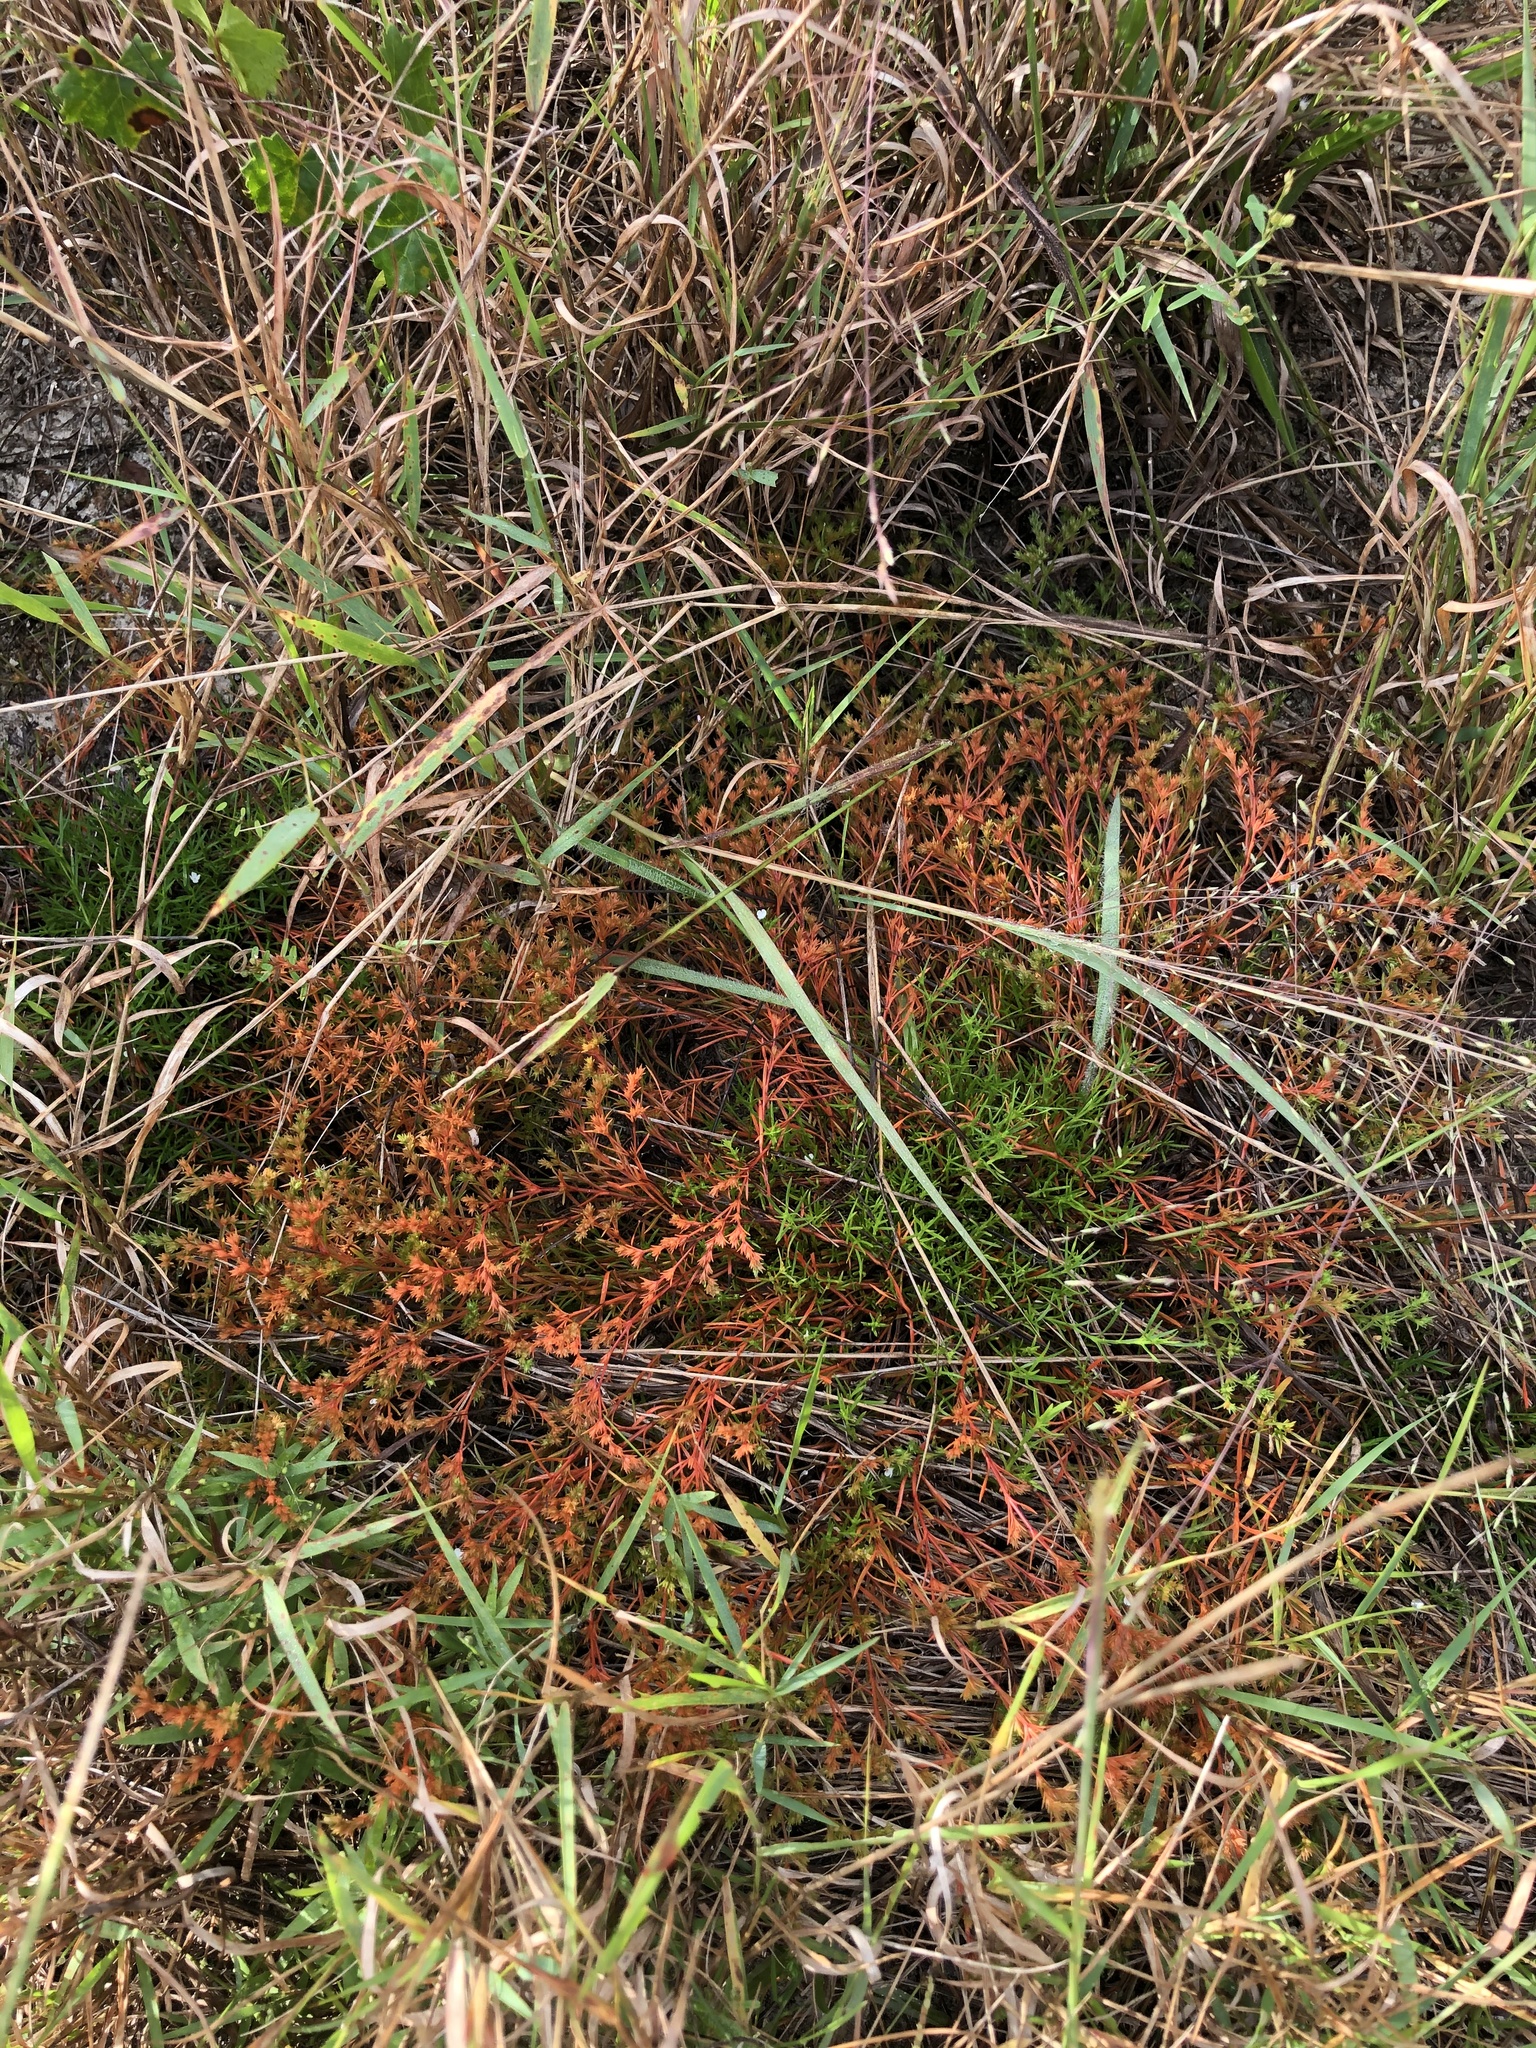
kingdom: Plantae
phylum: Tracheophyta
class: Magnoliopsida
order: Lamiales
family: Tetrachondraceae
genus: Polypremum
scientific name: Polypremum procumbens
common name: Juniper-leaf
